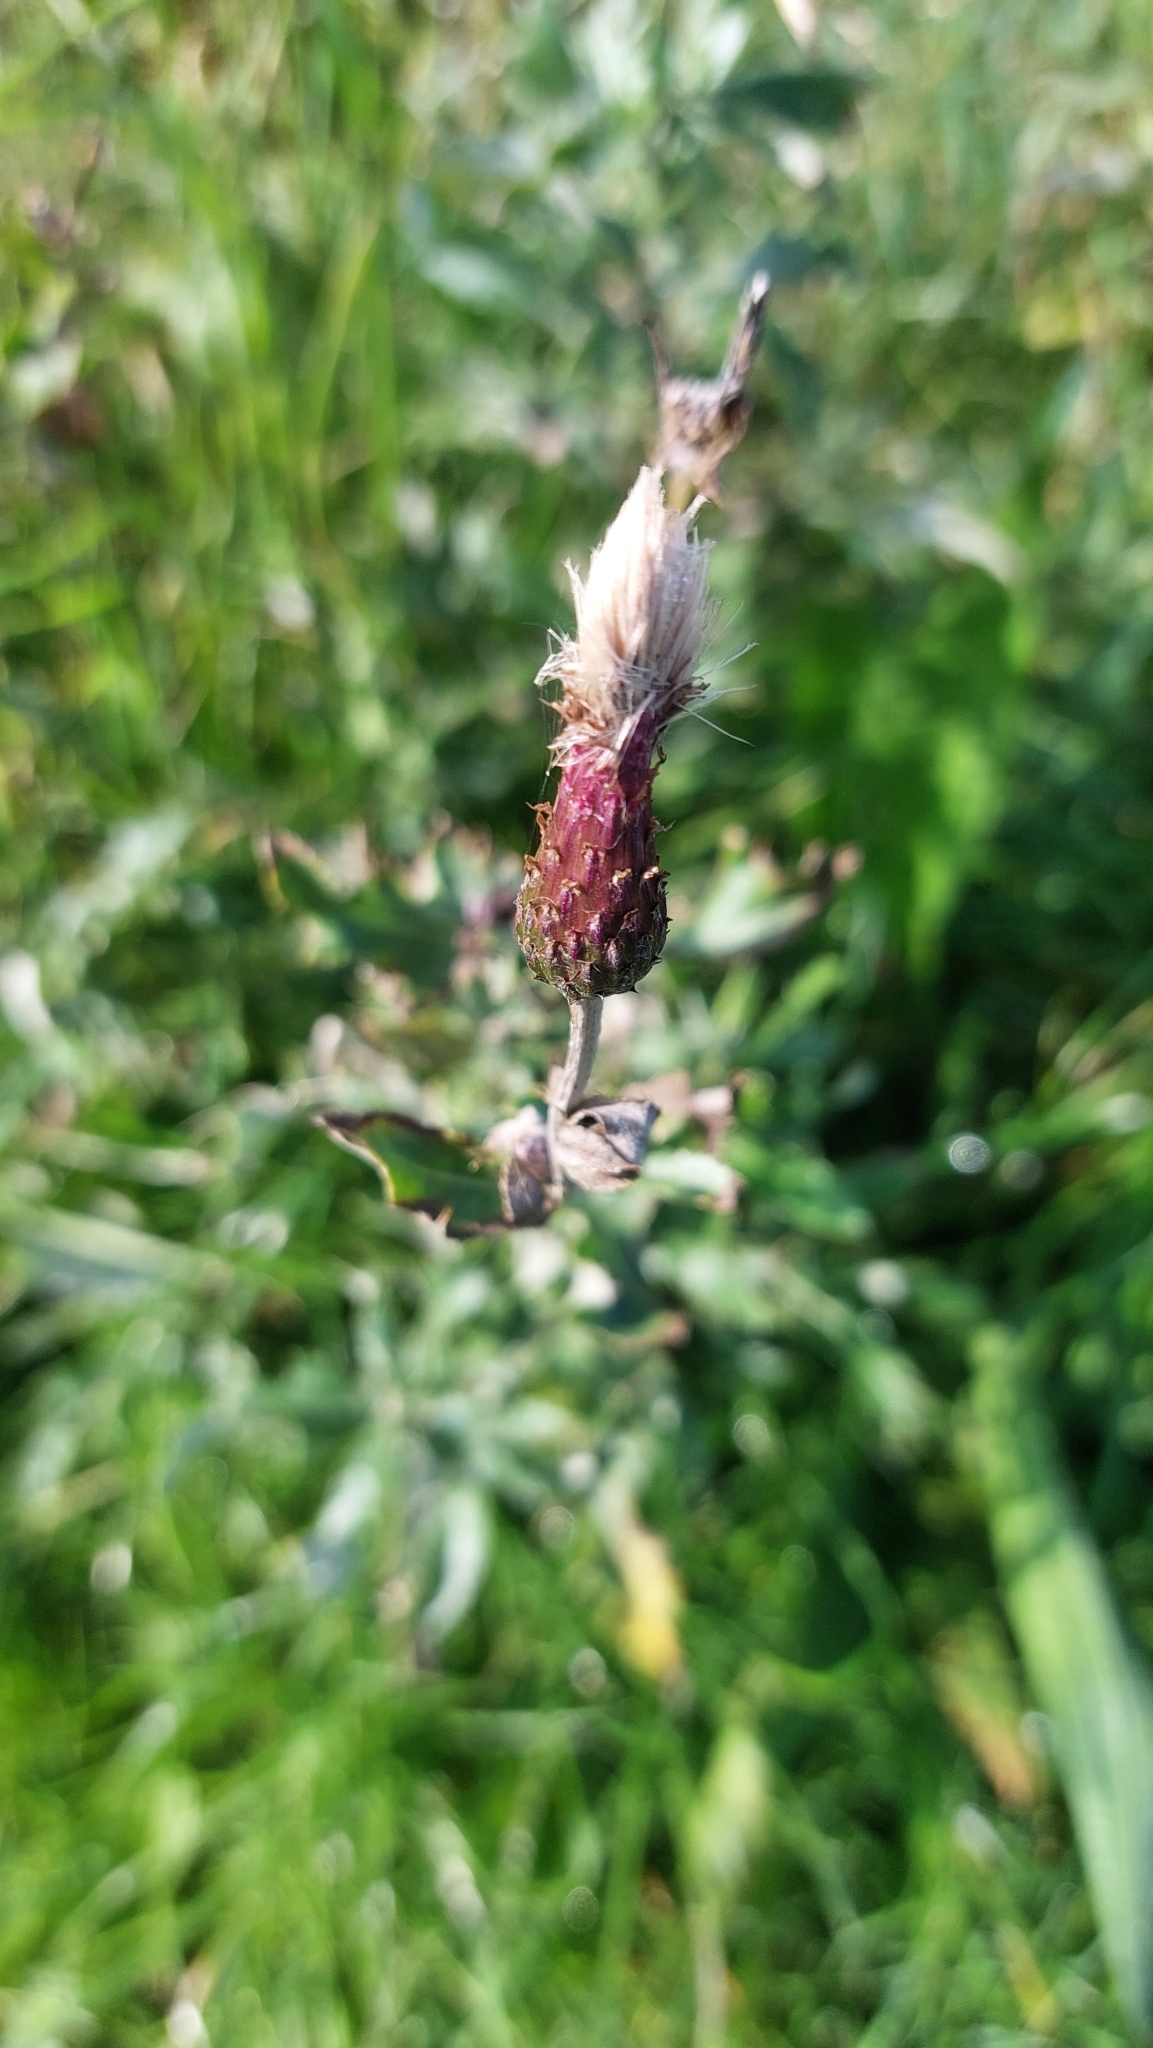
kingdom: Plantae
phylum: Tracheophyta
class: Magnoliopsida
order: Asterales
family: Asteraceae
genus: Cirsium
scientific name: Cirsium arvense
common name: Creeping thistle
